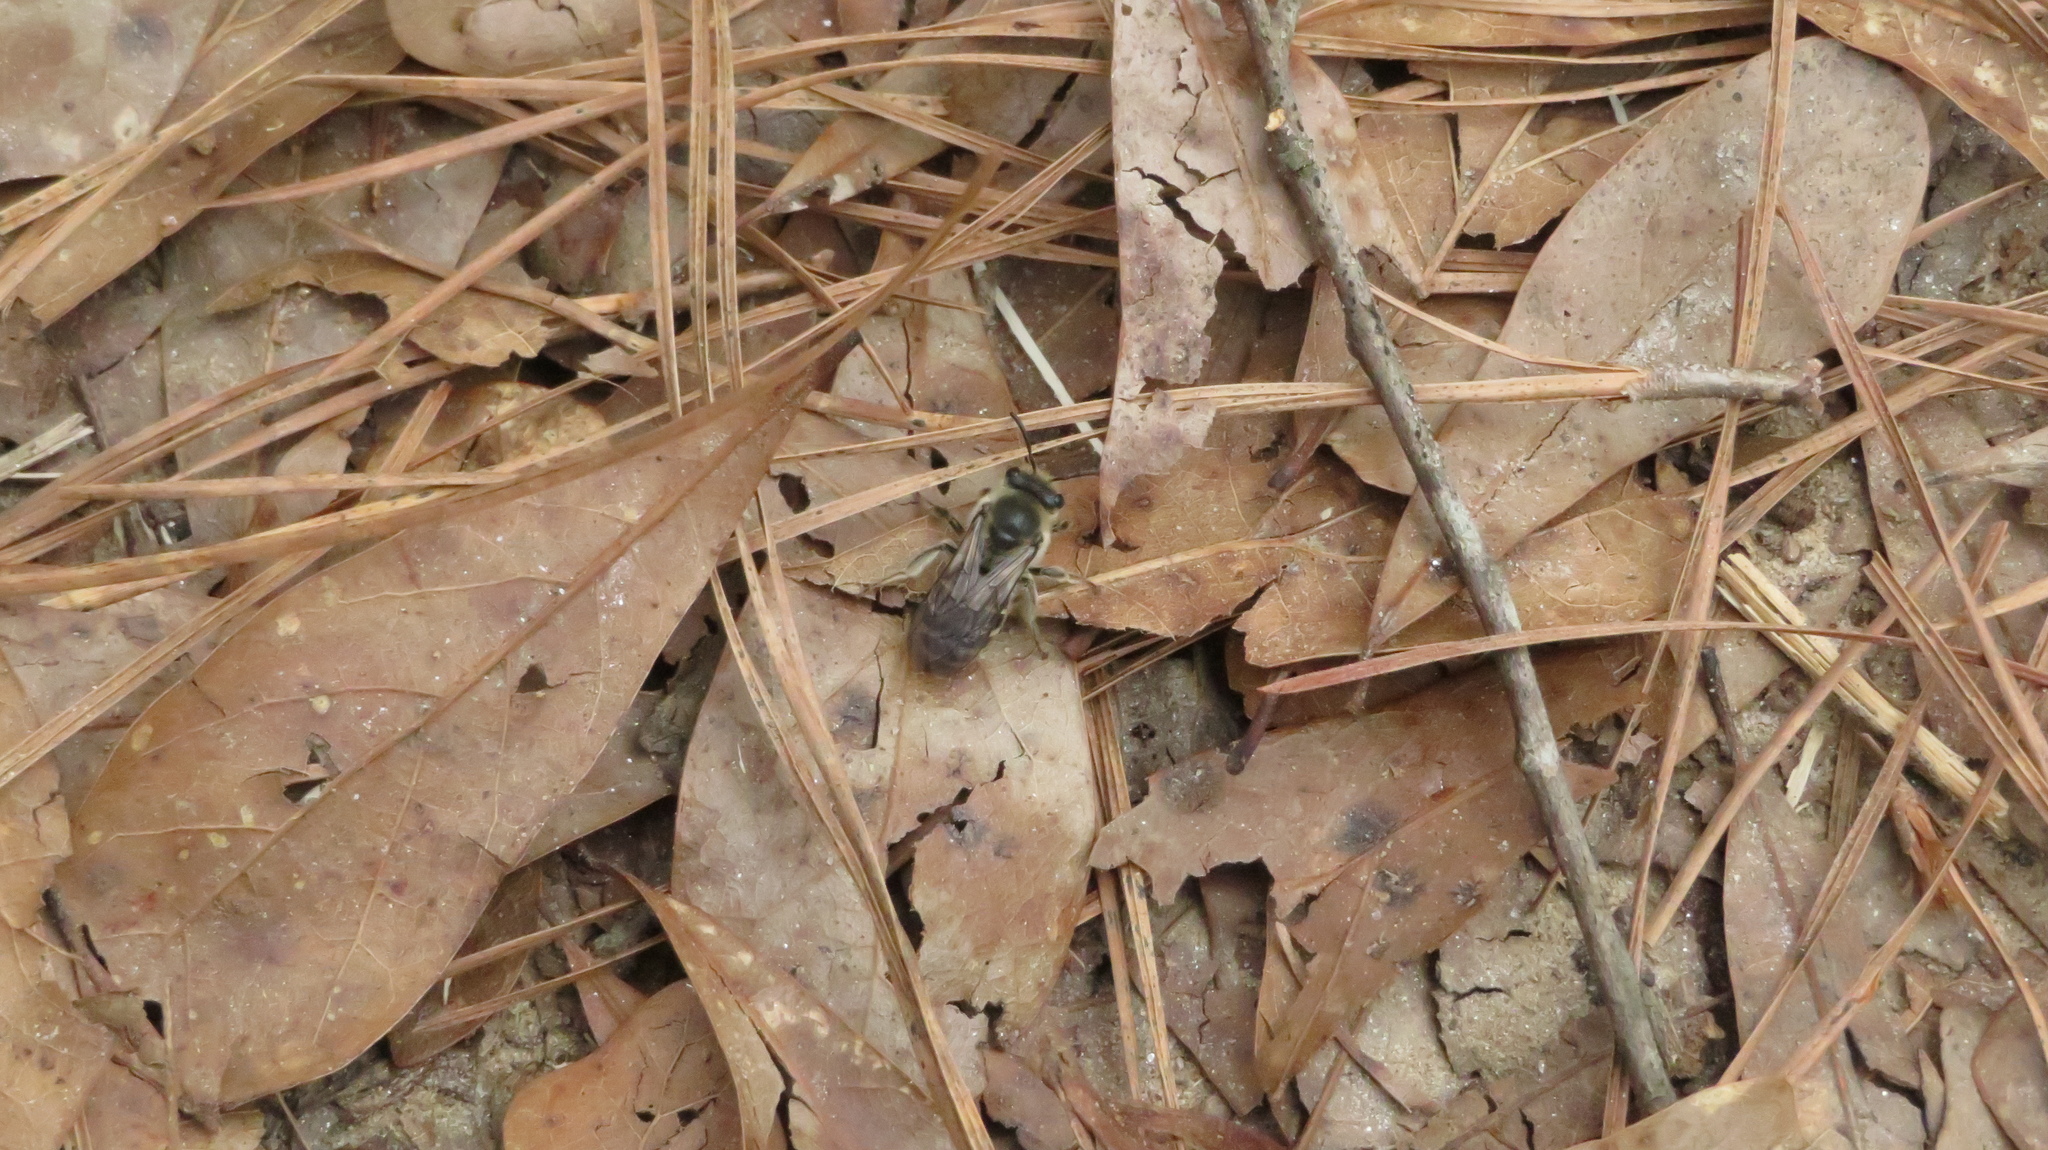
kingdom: Animalia
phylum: Arthropoda
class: Insecta
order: Hymenoptera
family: Colletidae
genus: Colletes
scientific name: Colletes inaequalis
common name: Unequal cellophane bee
